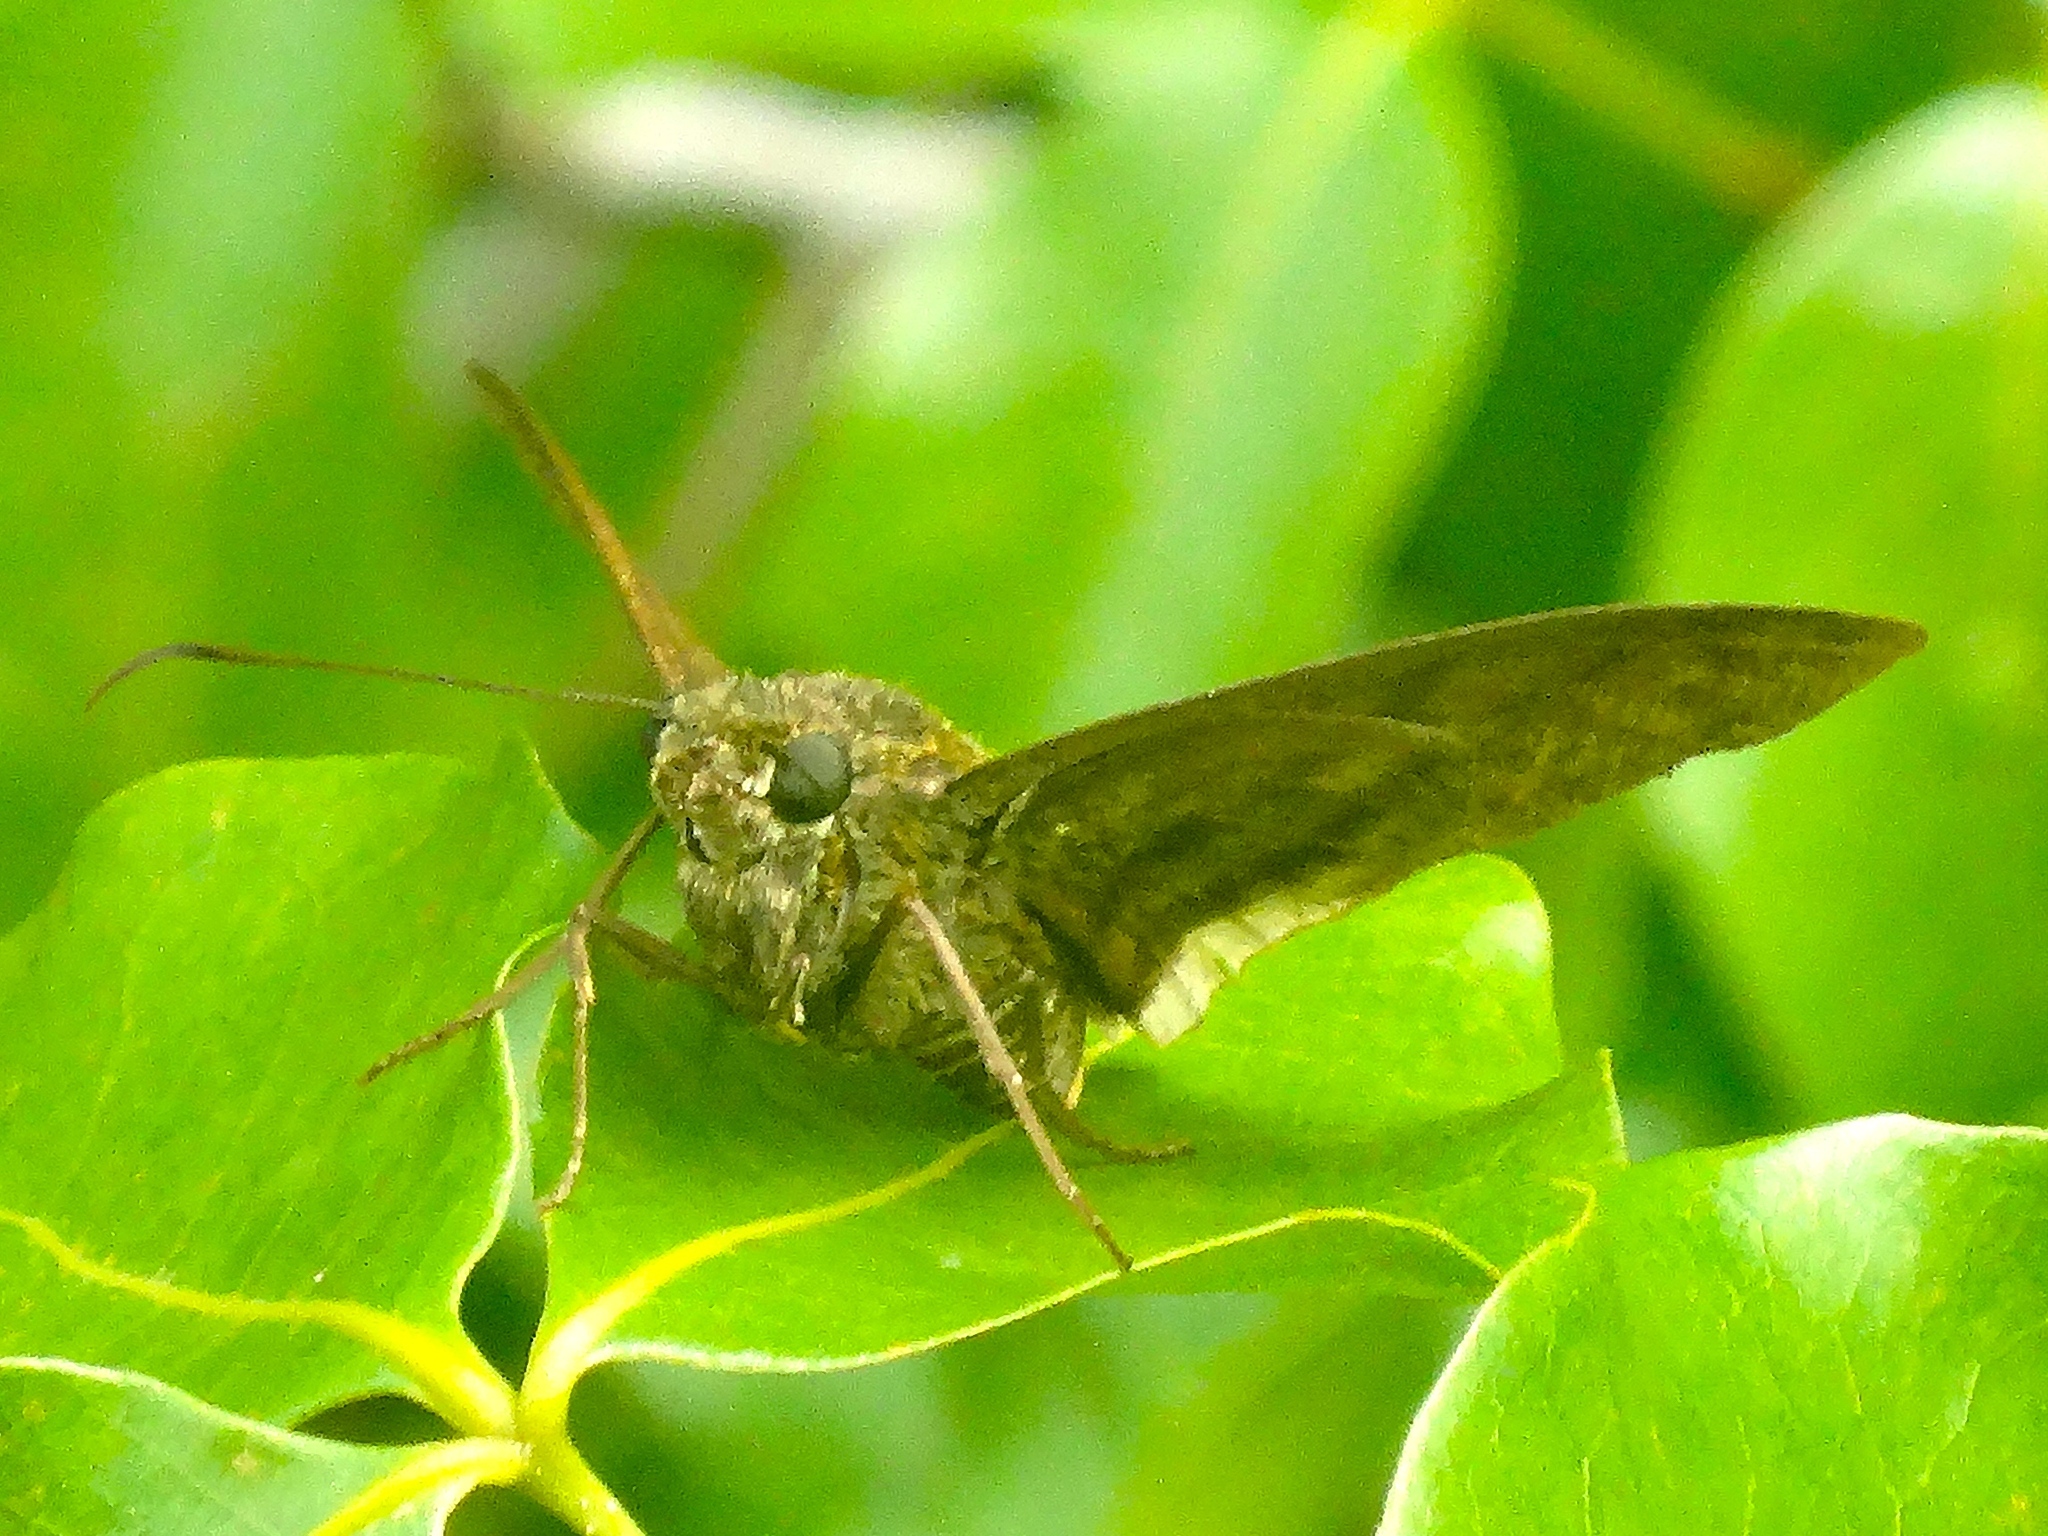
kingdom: Animalia
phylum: Arthropoda
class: Insecta
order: Lepidoptera
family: Hesperiidae
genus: Astraptes
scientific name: Astraptes anaphus
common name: Yellow-tipped flasher
